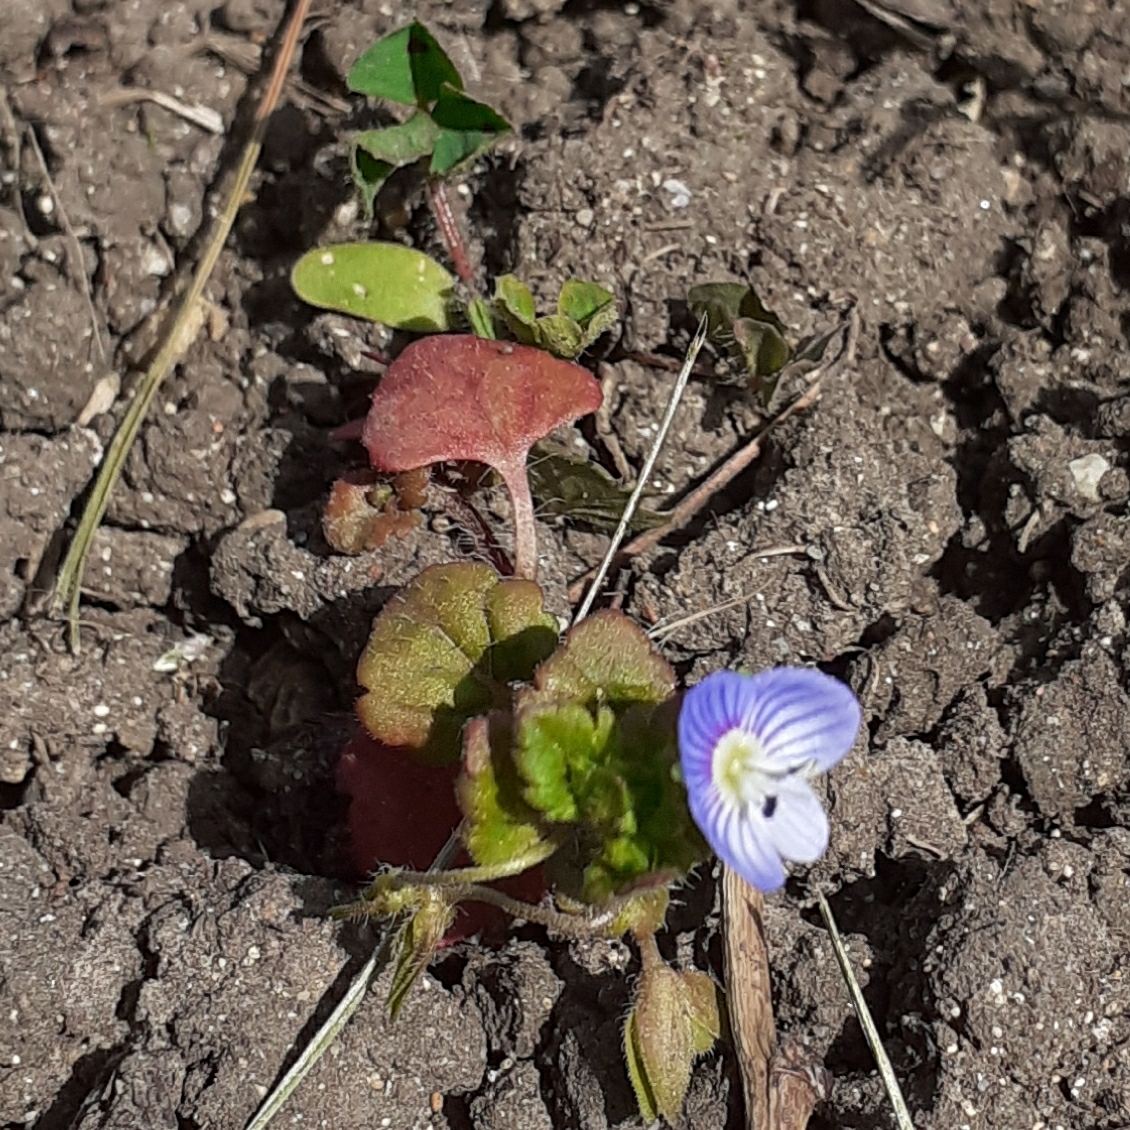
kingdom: Plantae
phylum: Tracheophyta
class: Magnoliopsida
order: Lamiales
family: Plantaginaceae
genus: Veronica
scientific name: Veronica persica
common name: Common field-speedwell
